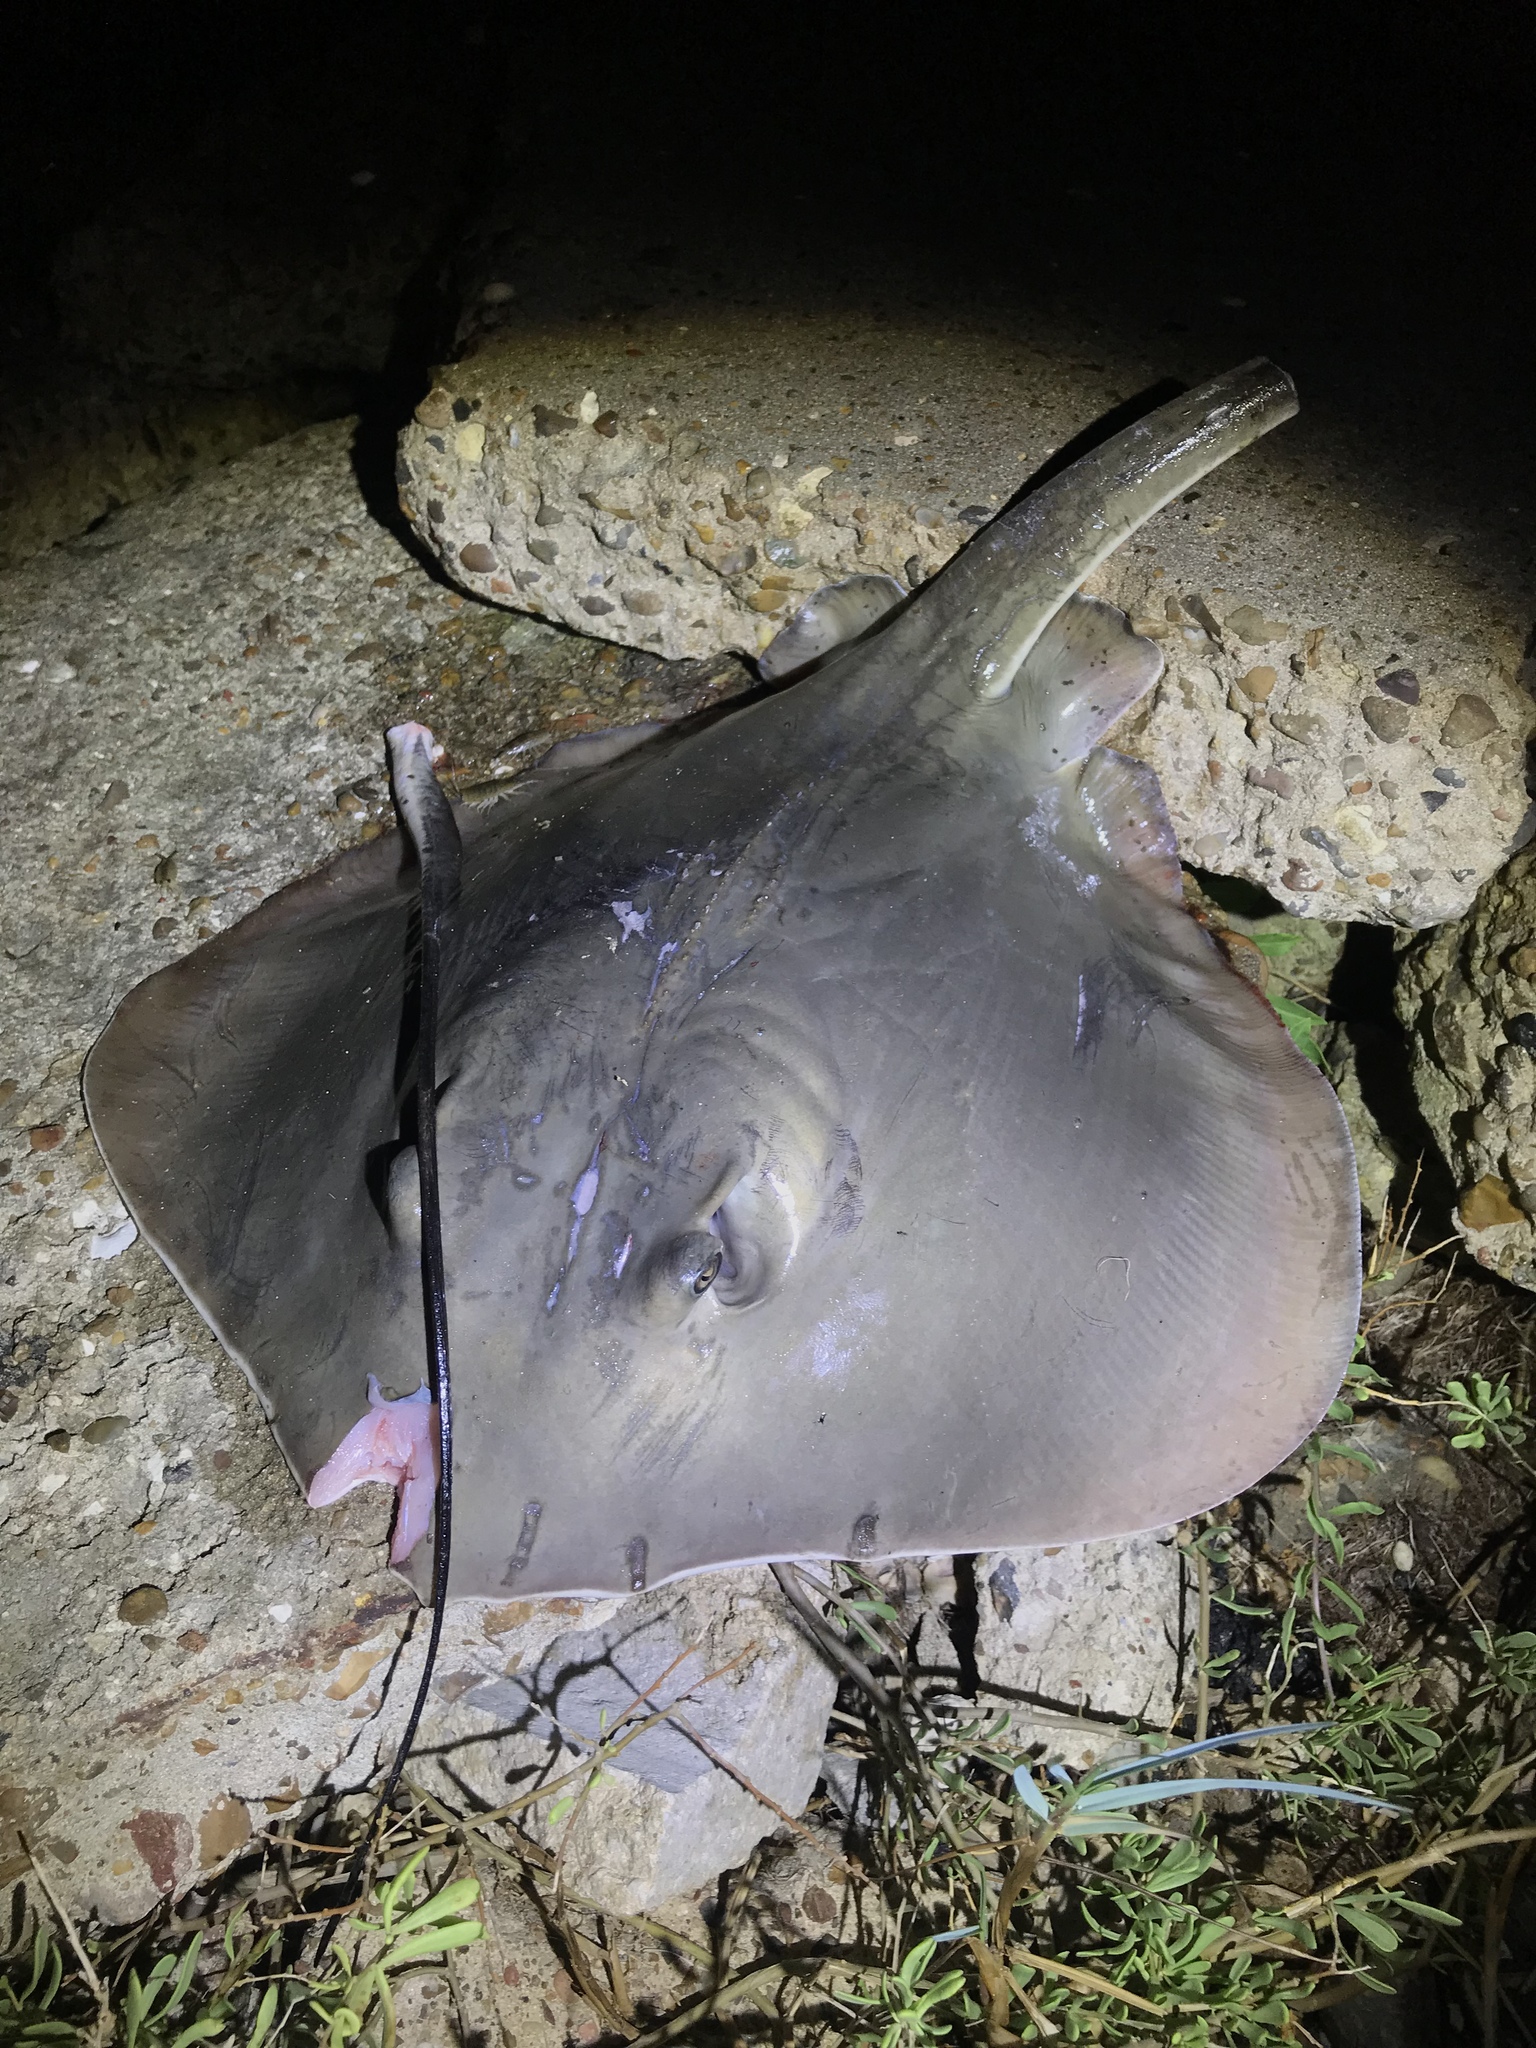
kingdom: Animalia
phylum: Chordata
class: Elasmobranchii
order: Myliobatiformes
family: Dasyatidae
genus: Hypanus
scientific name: Hypanus
